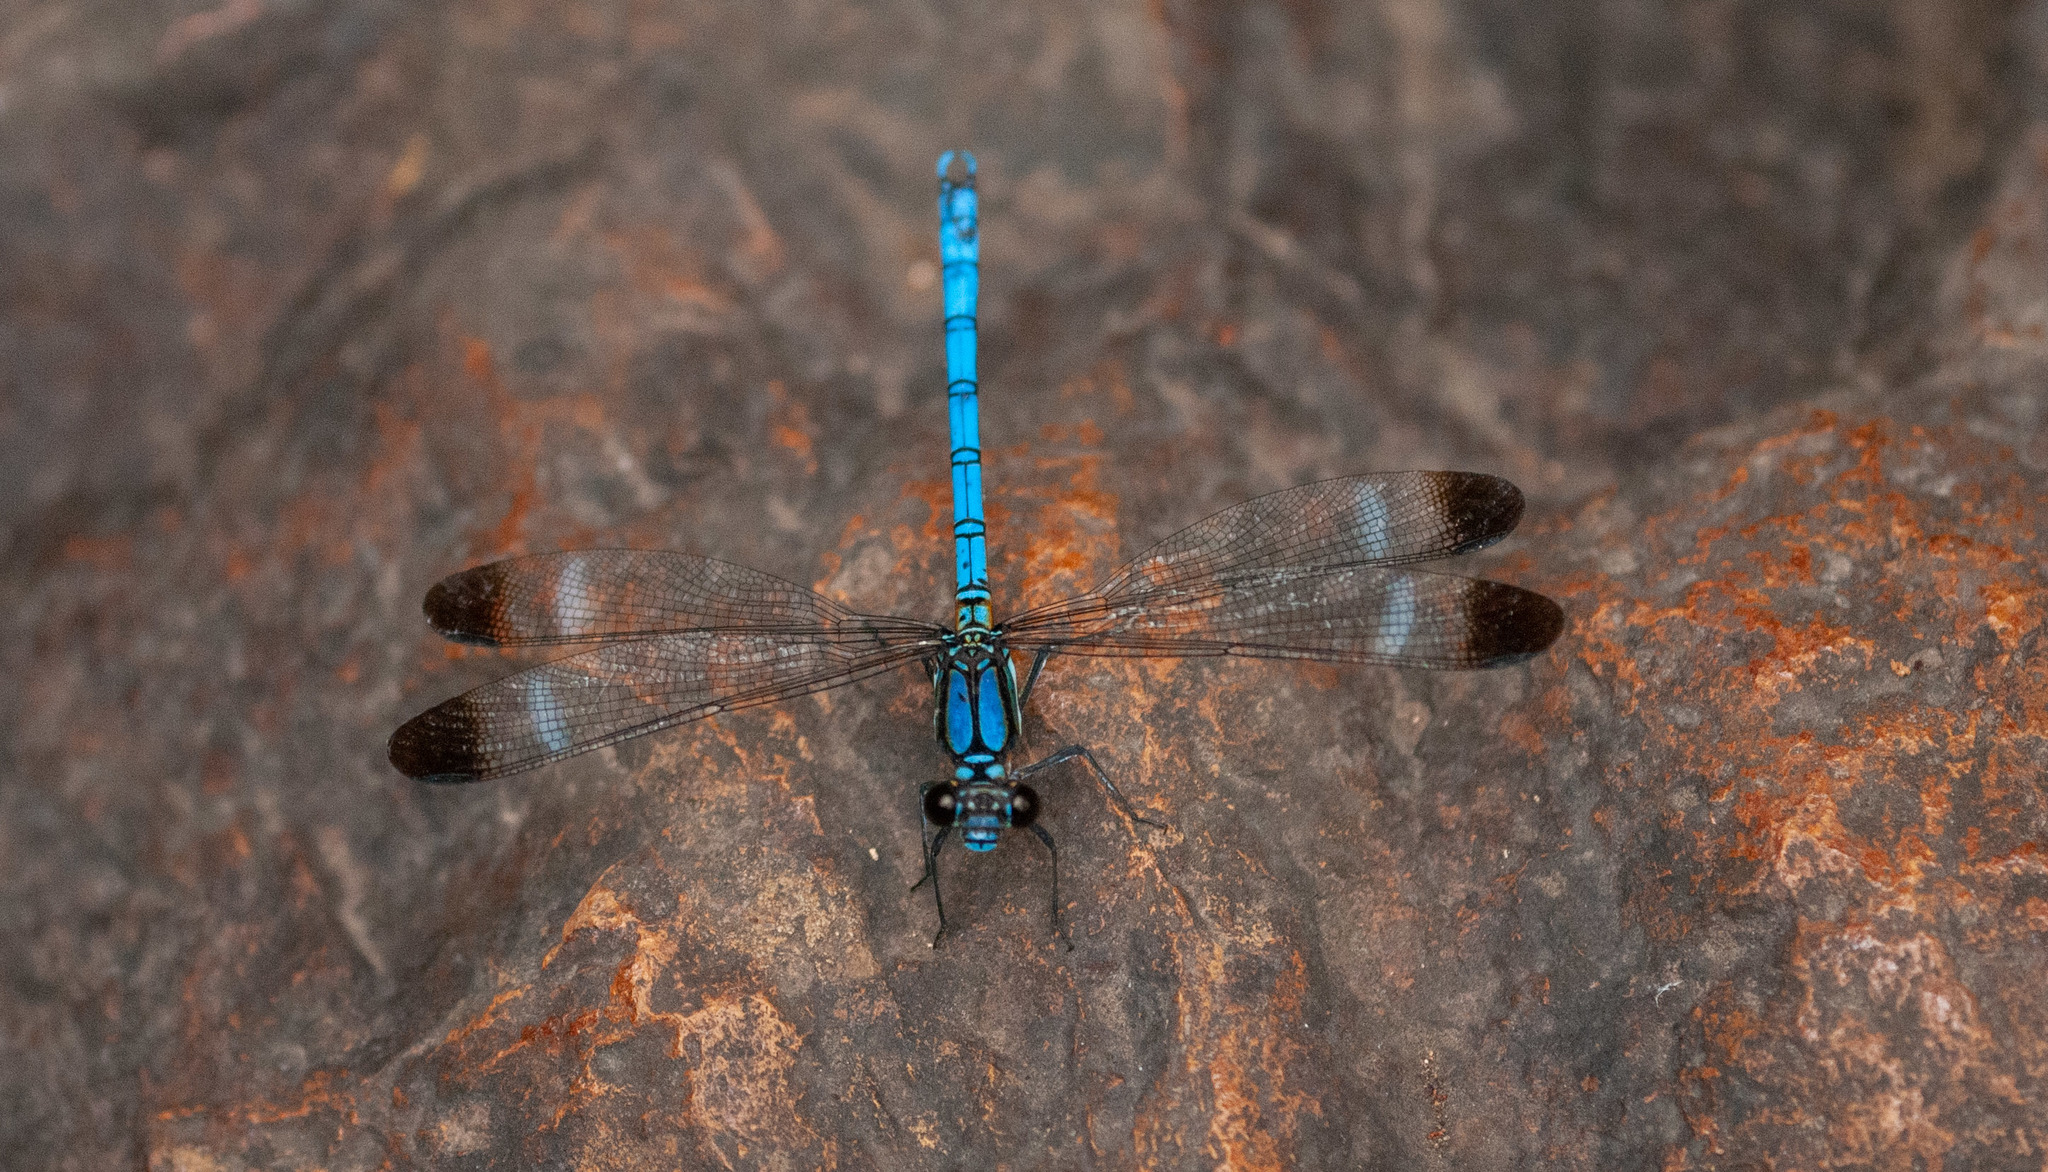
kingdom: Animalia
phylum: Arthropoda
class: Insecta
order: Odonata
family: Lestoideidae
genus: Diphlebia
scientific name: Diphlebia lestoides
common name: Whitewater rockmaster
